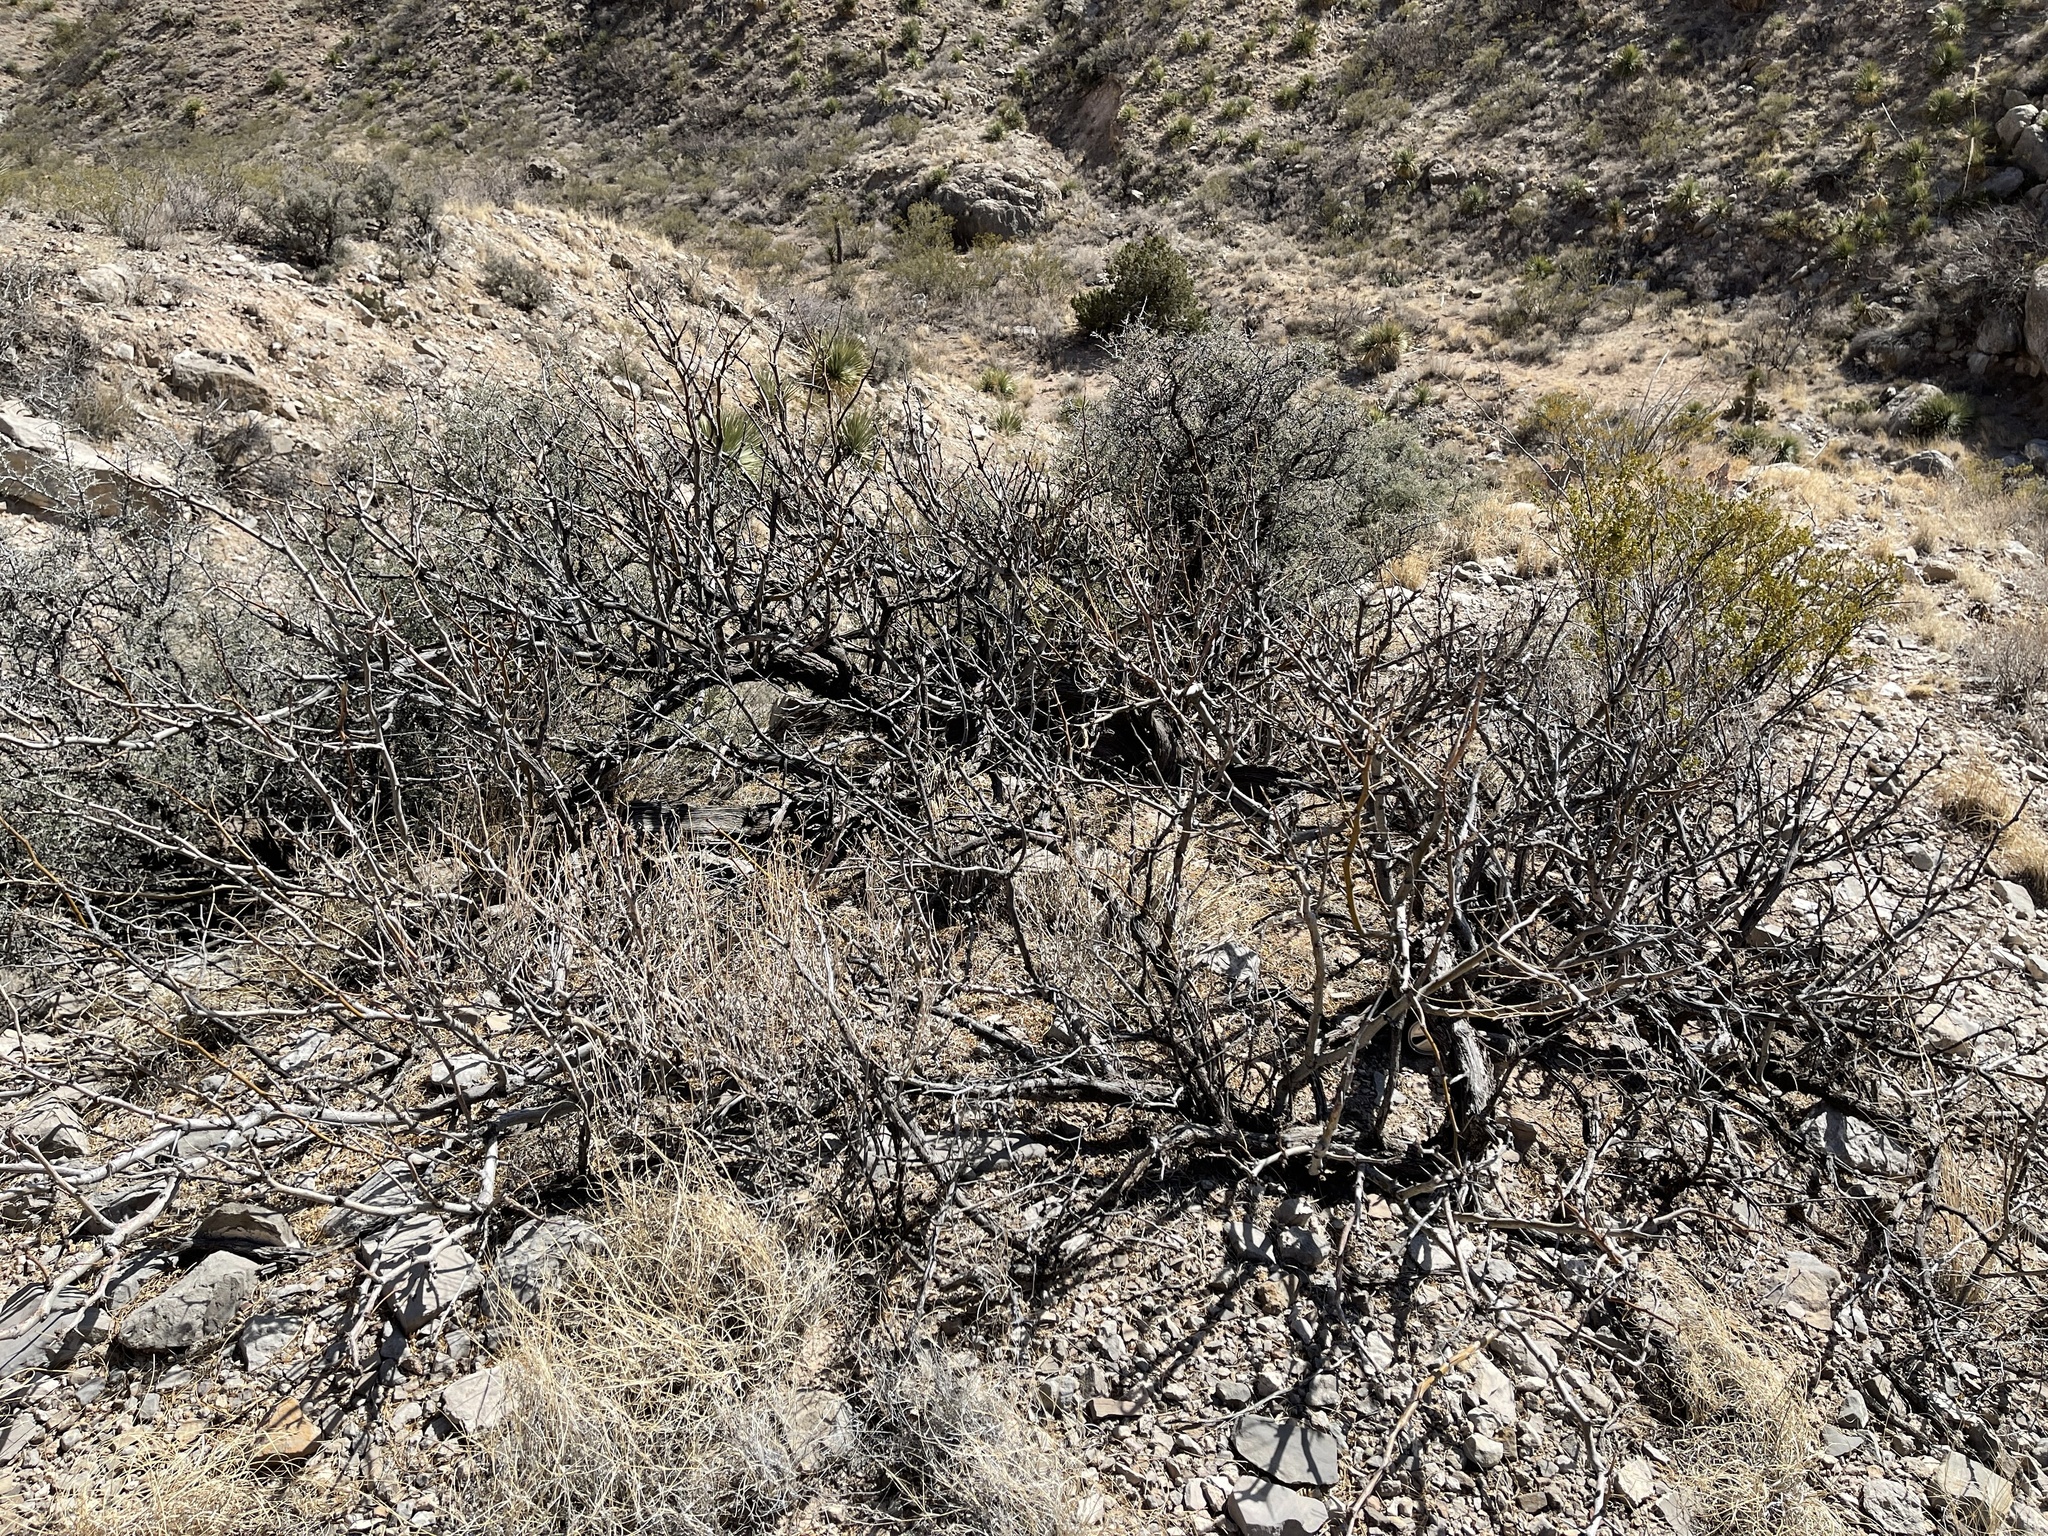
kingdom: Plantae
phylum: Tracheophyta
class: Magnoliopsida
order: Fabales
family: Fabaceae
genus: Prosopis
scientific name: Prosopis glandulosa
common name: Honey mesquite
